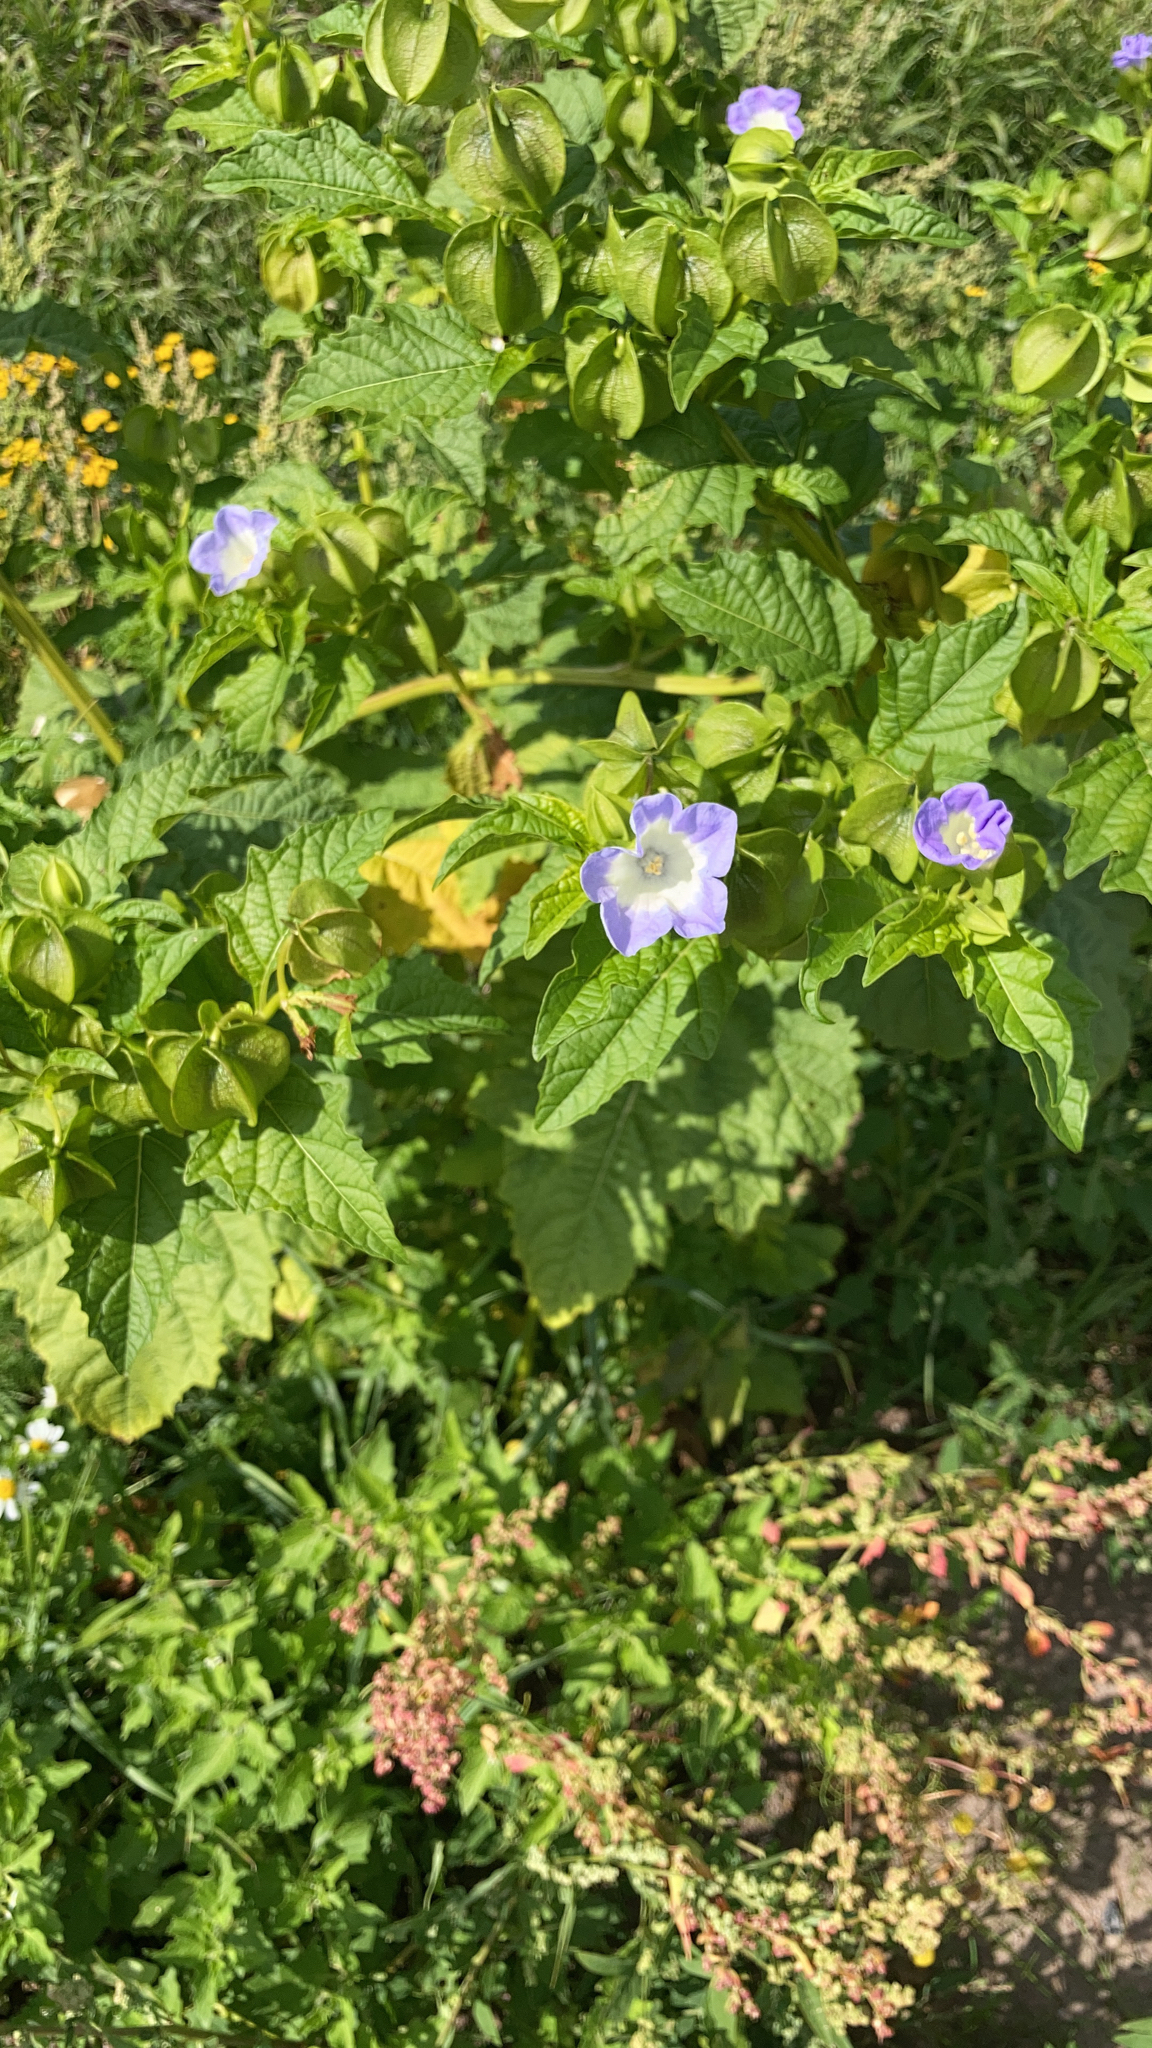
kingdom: Plantae
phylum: Tracheophyta
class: Magnoliopsida
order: Solanales
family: Solanaceae
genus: Nicandra
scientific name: Nicandra physalodes
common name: Apple-of-peru
